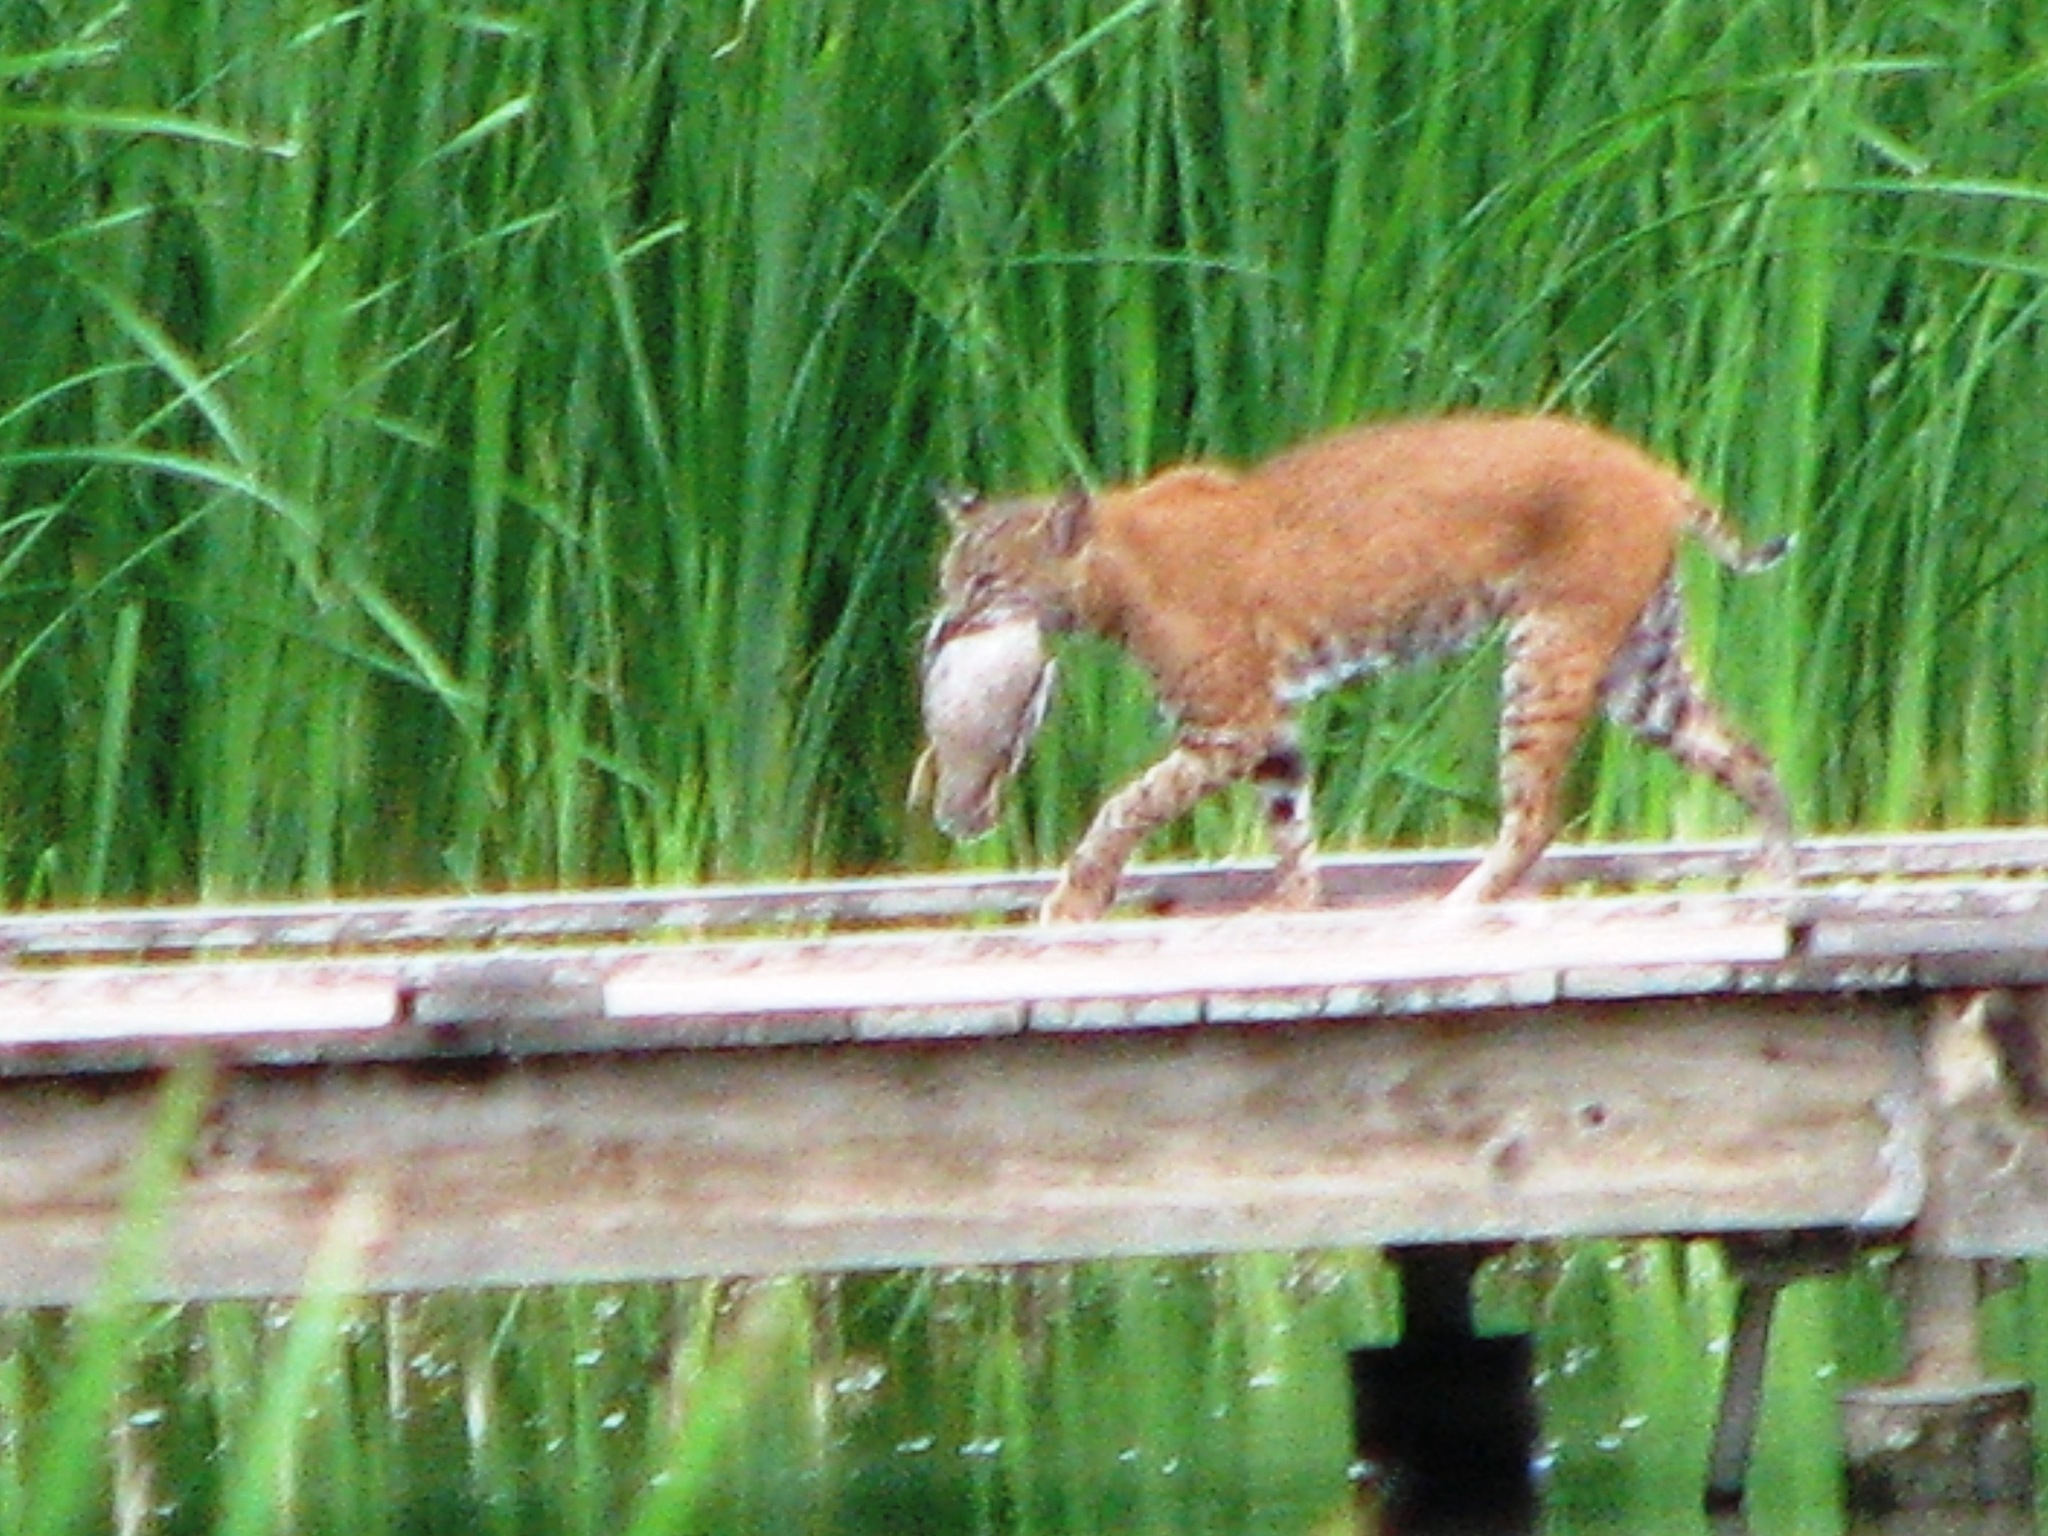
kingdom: Animalia
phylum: Chordata
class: Mammalia
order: Carnivora
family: Felidae
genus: Lynx
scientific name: Lynx rufus
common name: Bobcat
